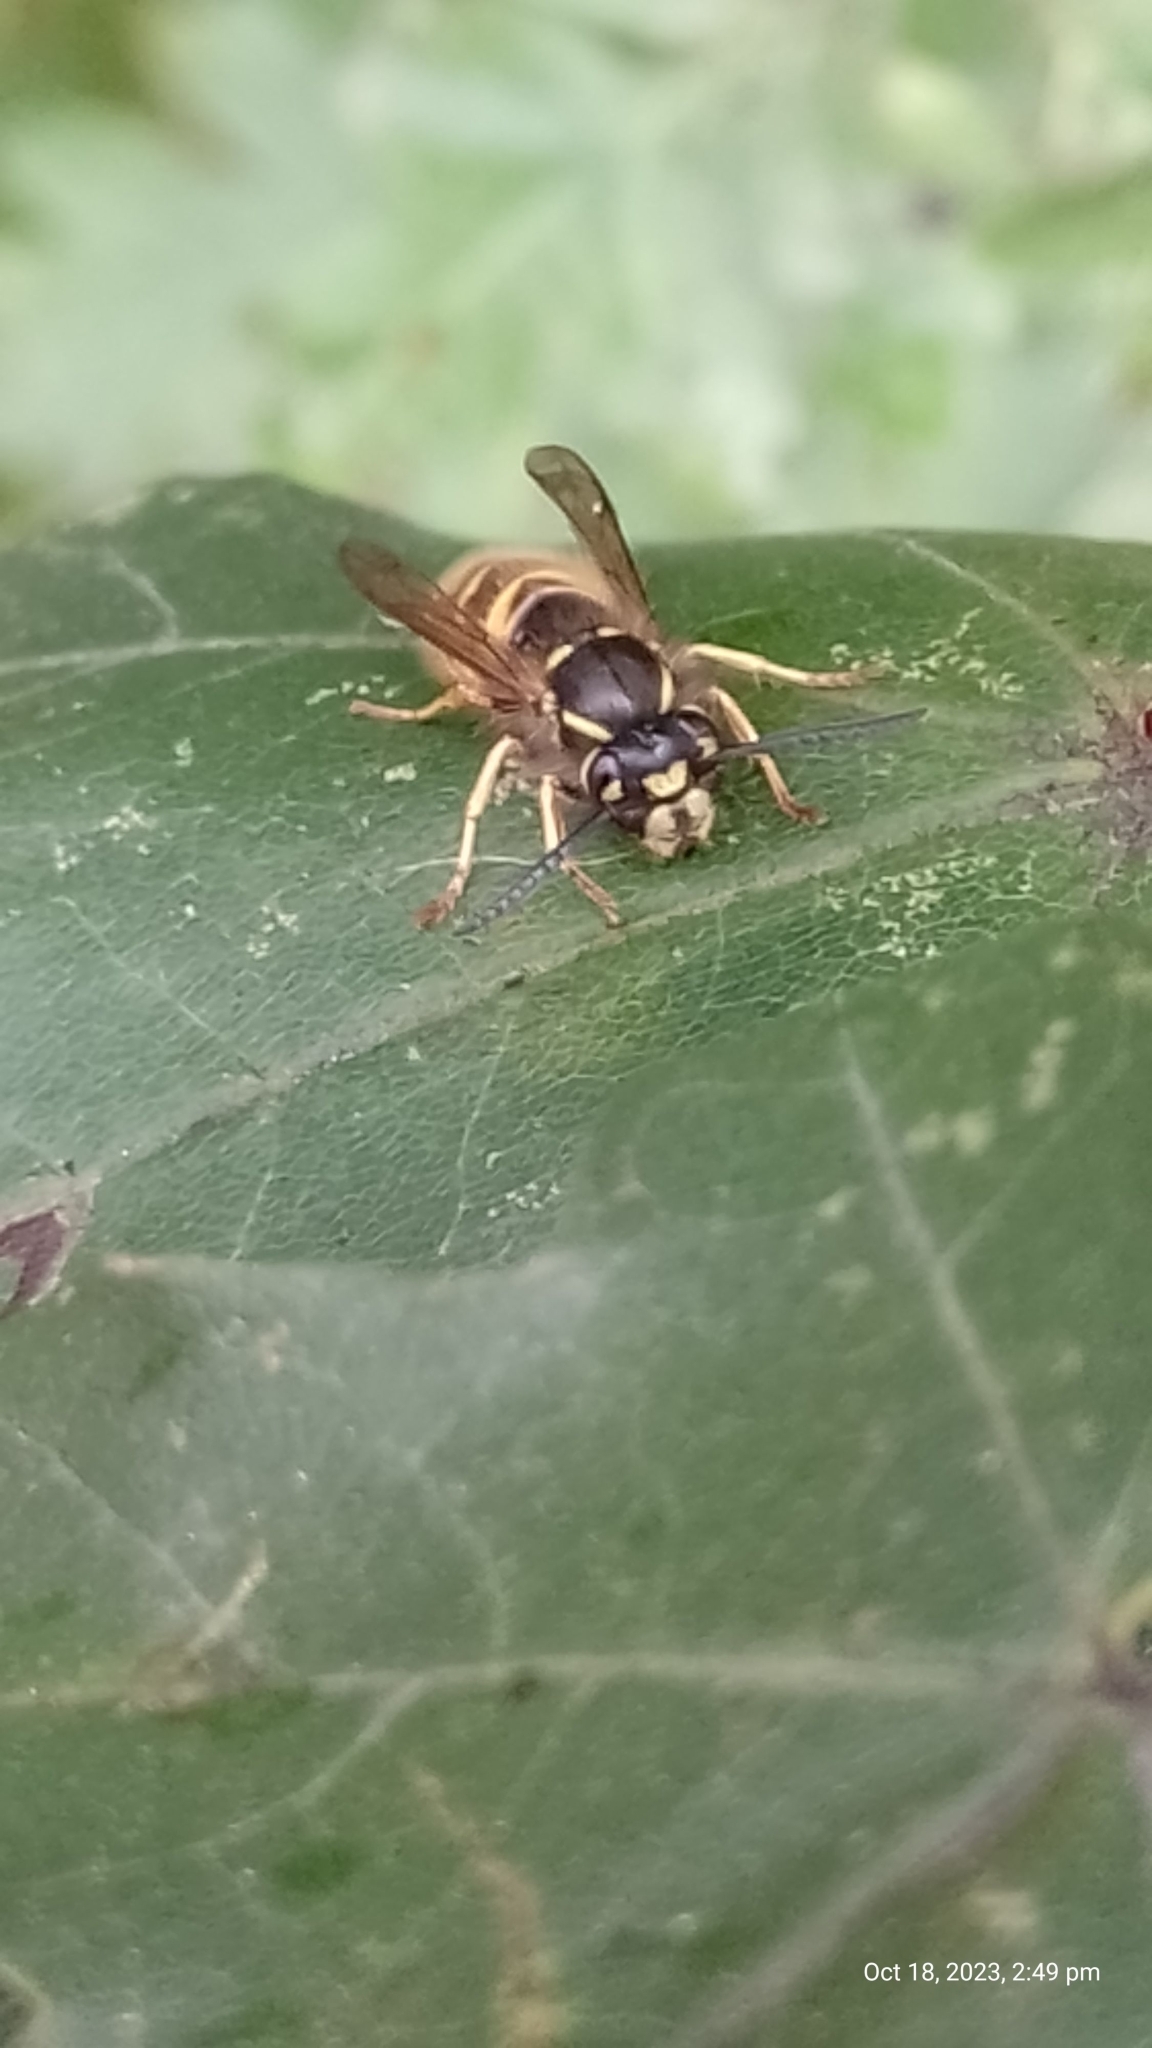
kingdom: Animalia
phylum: Arthropoda
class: Insecta
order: Hymenoptera
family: Vespidae
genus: Vespula
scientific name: Vespula vulgaris
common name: Common wasp
